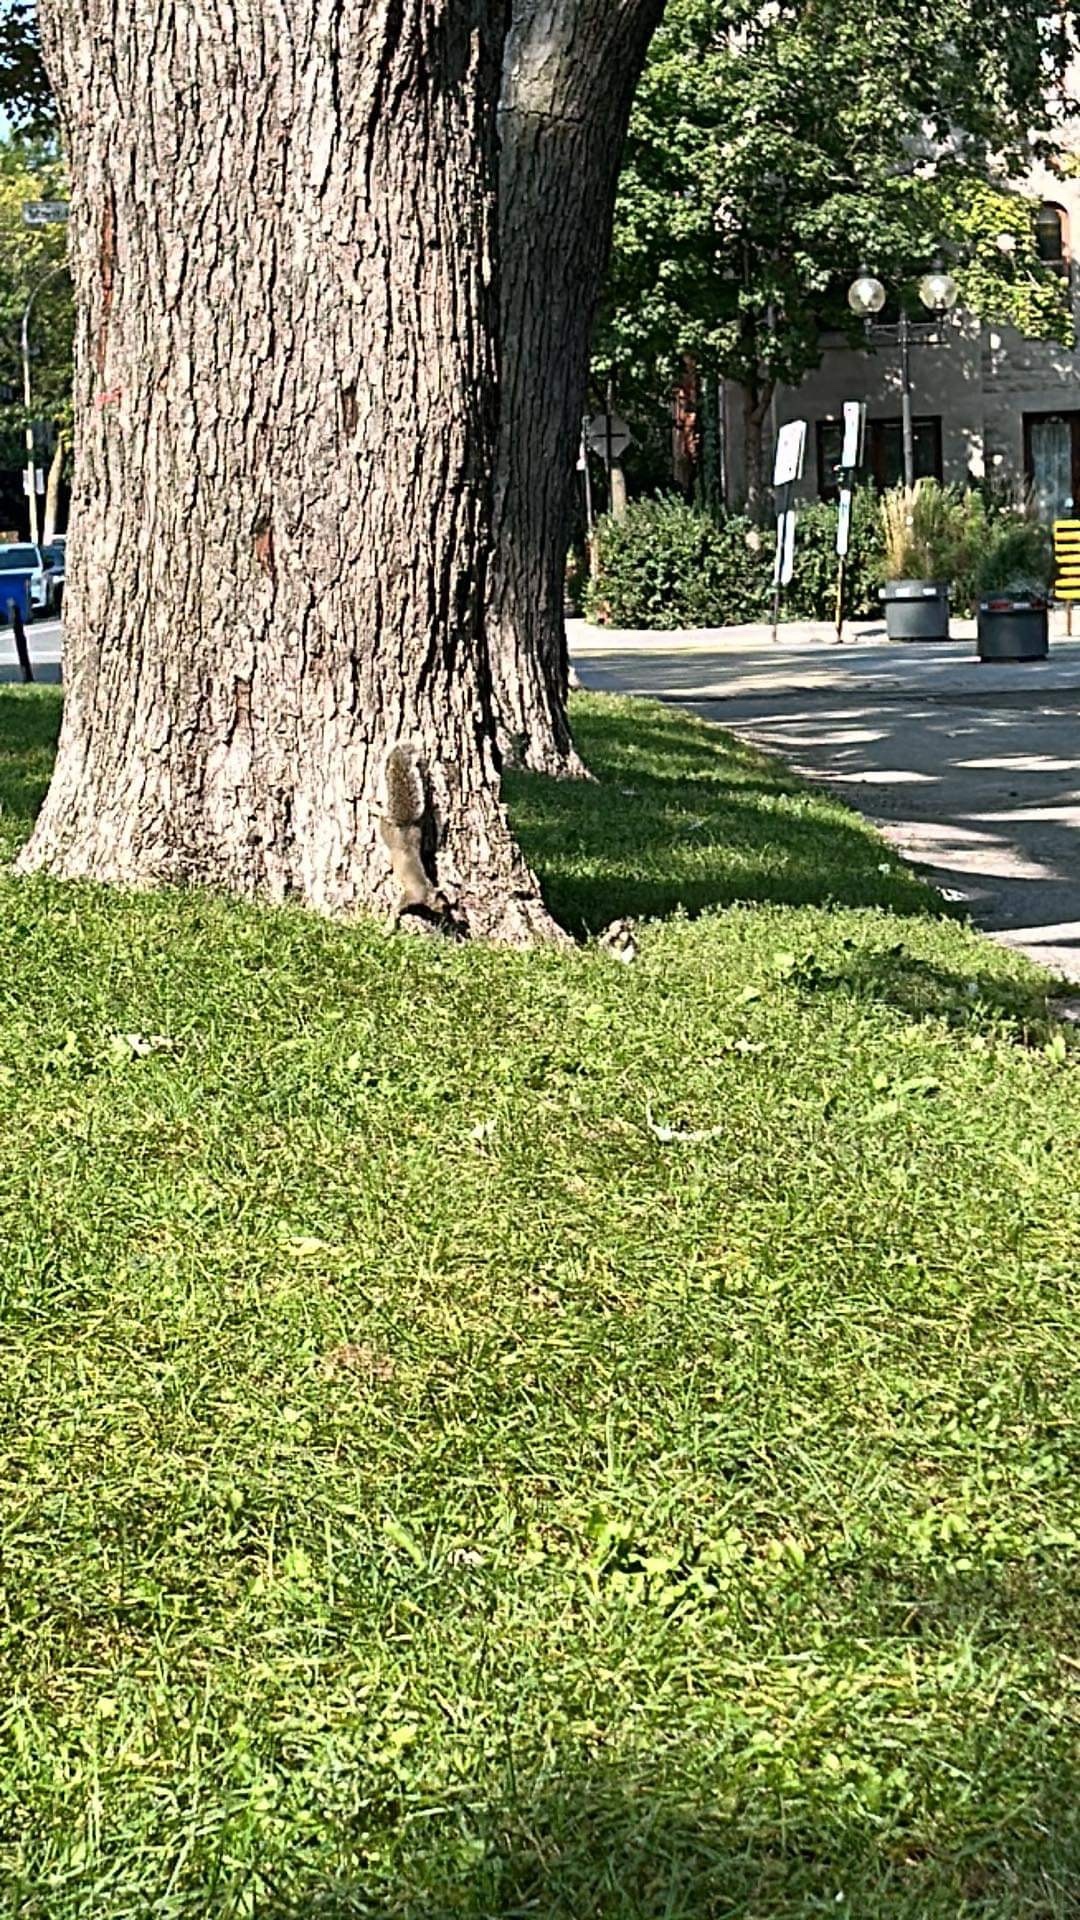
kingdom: Animalia
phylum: Chordata
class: Mammalia
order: Rodentia
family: Sciuridae
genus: Sciurus
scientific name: Sciurus carolinensis
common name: Eastern gray squirrel
